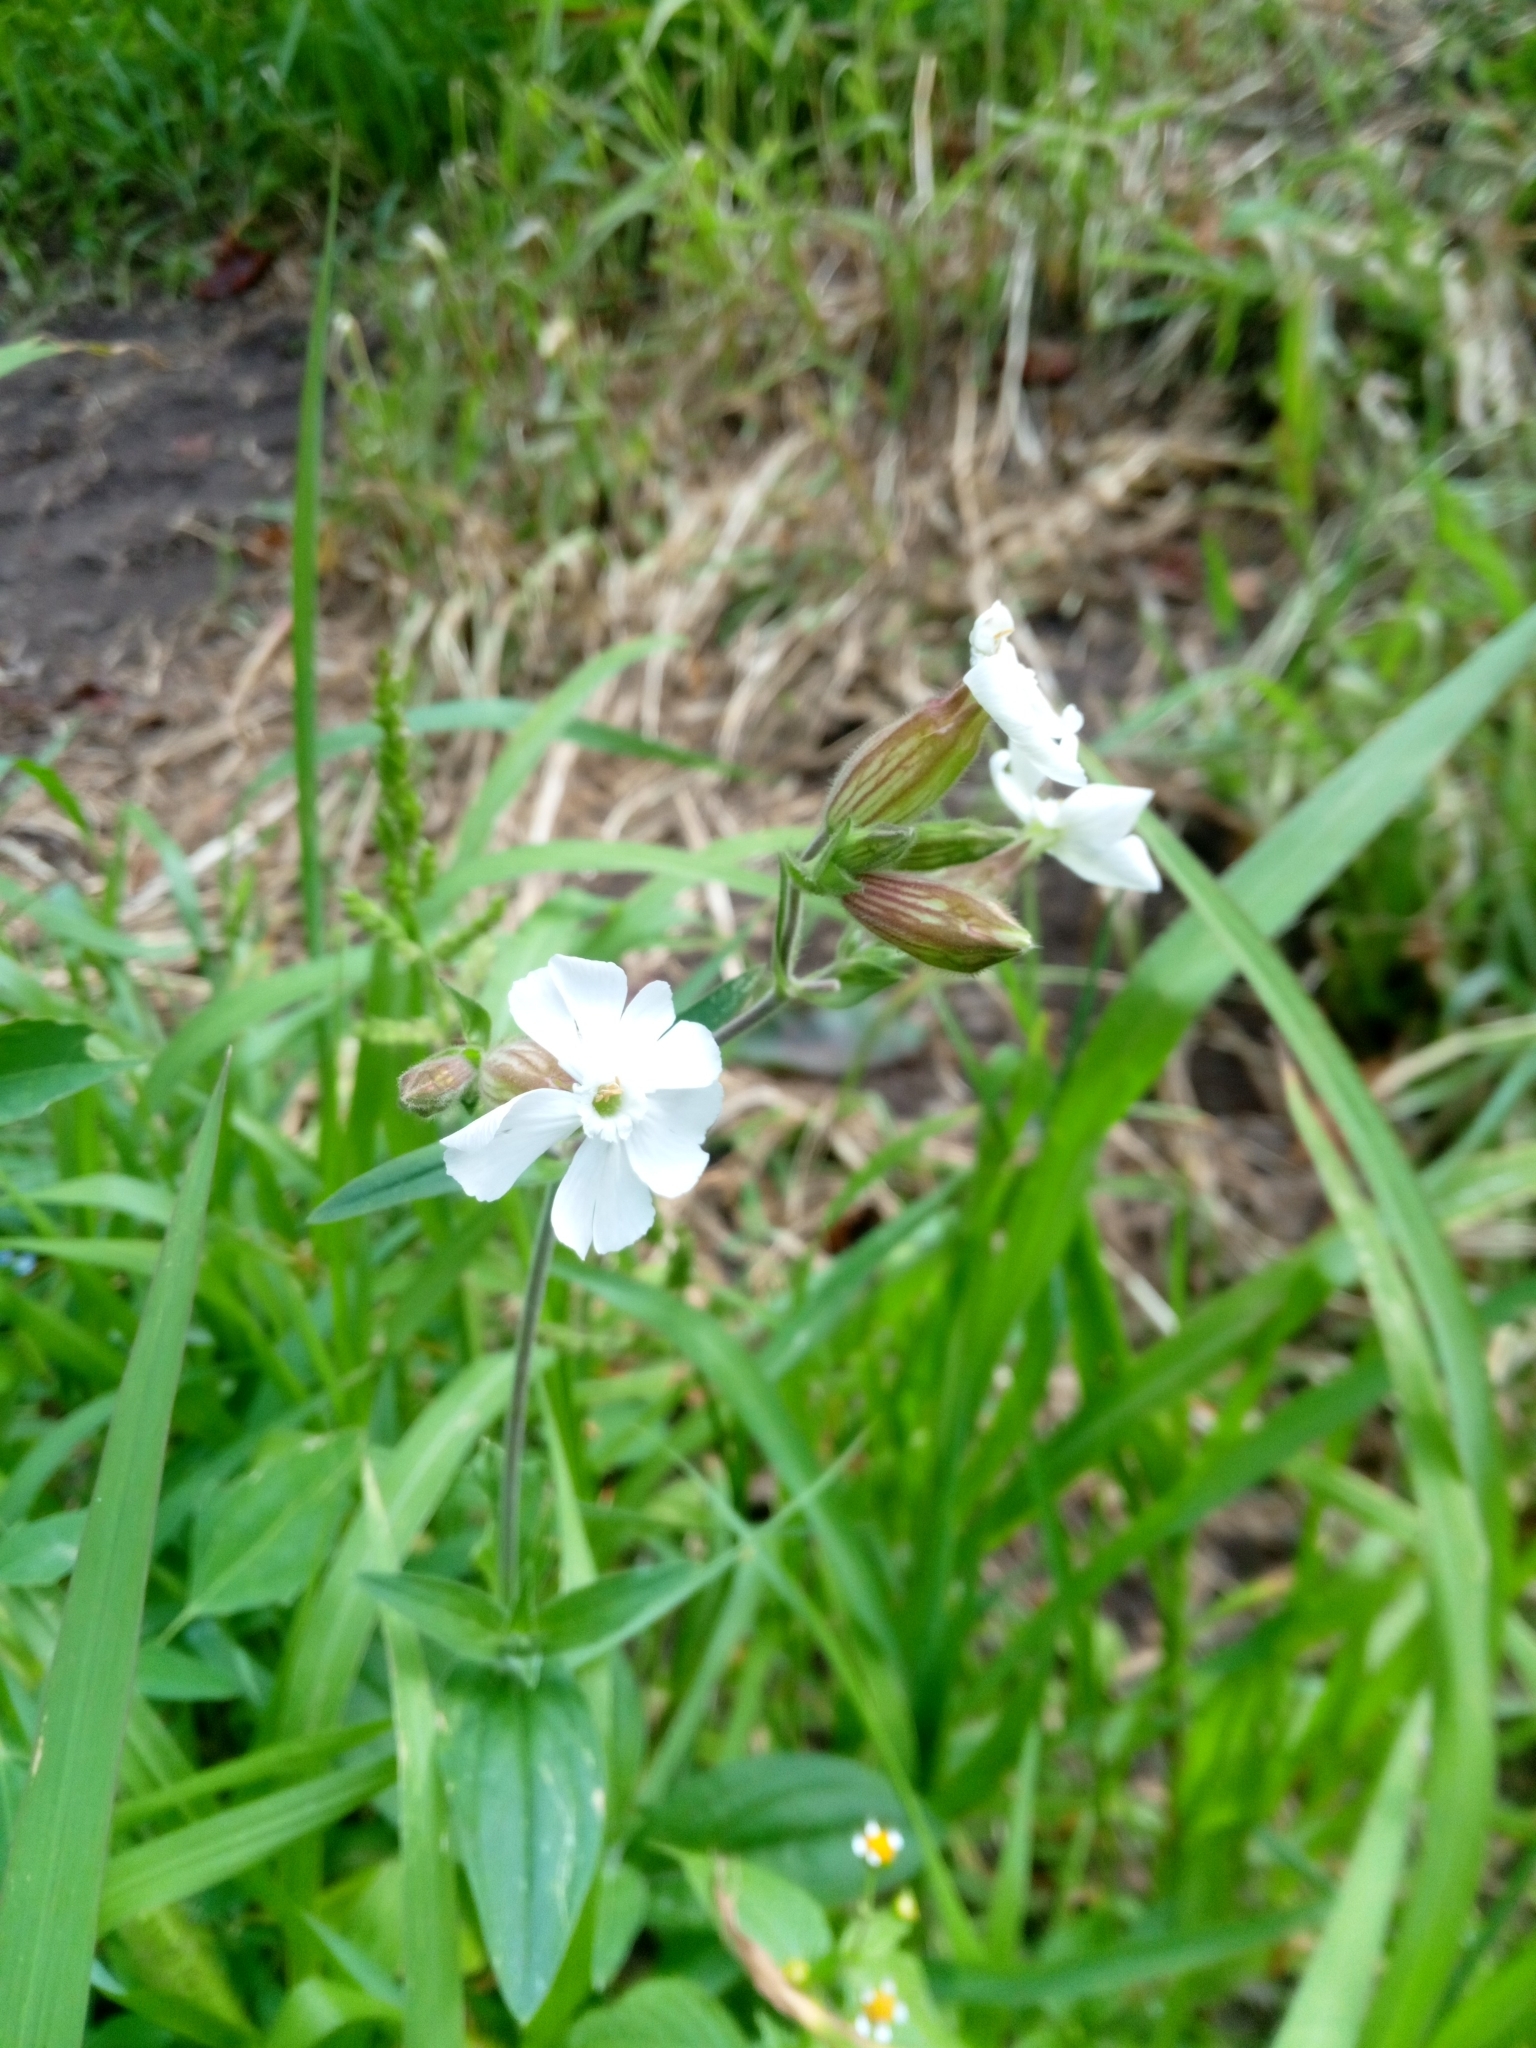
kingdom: Plantae
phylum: Tracheophyta
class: Magnoliopsida
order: Caryophyllales
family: Caryophyllaceae
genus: Silene
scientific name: Silene latifolia
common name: White campion
